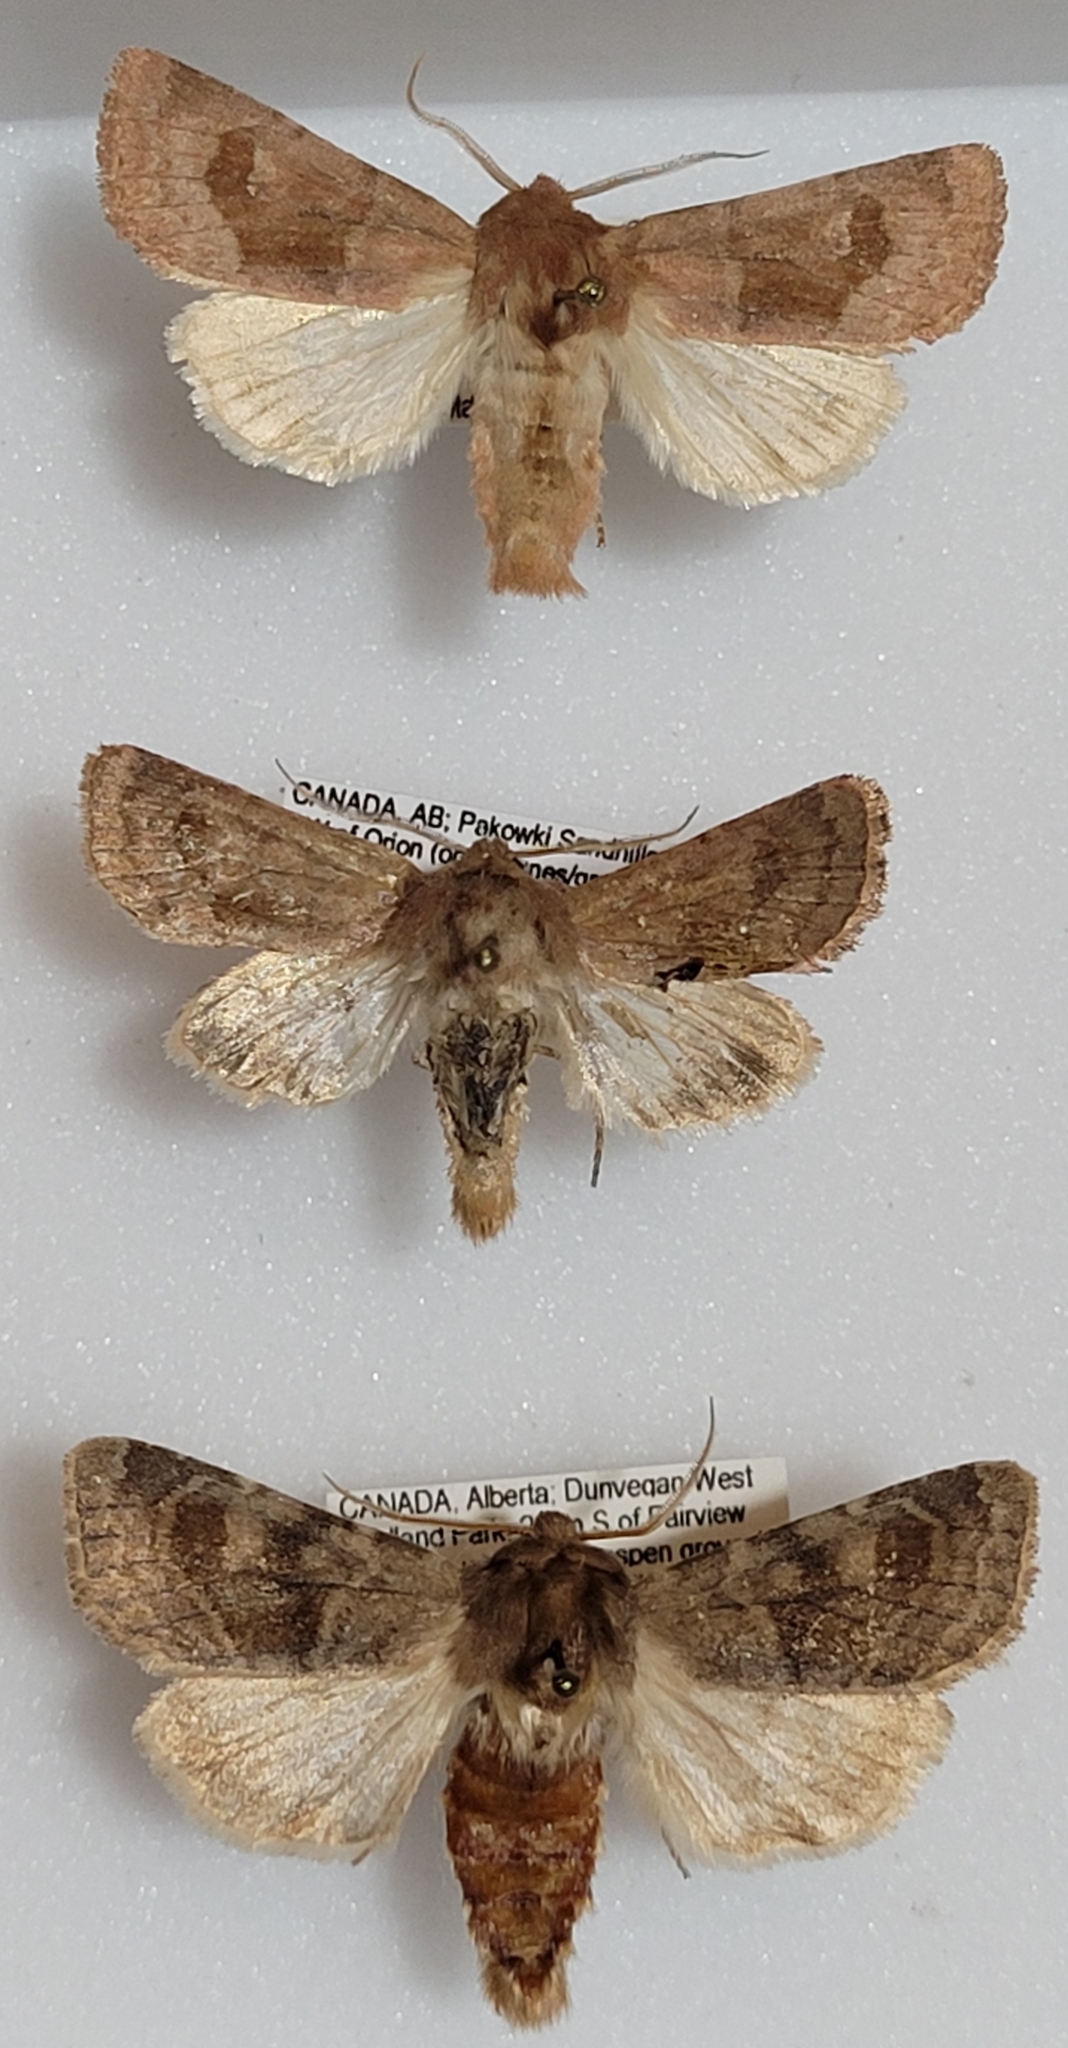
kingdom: Animalia
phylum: Arthropoda
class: Insecta
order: Lepidoptera
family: Noctuidae
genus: Nephelodes
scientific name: Nephelodes minians
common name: Bronzed cutworm
